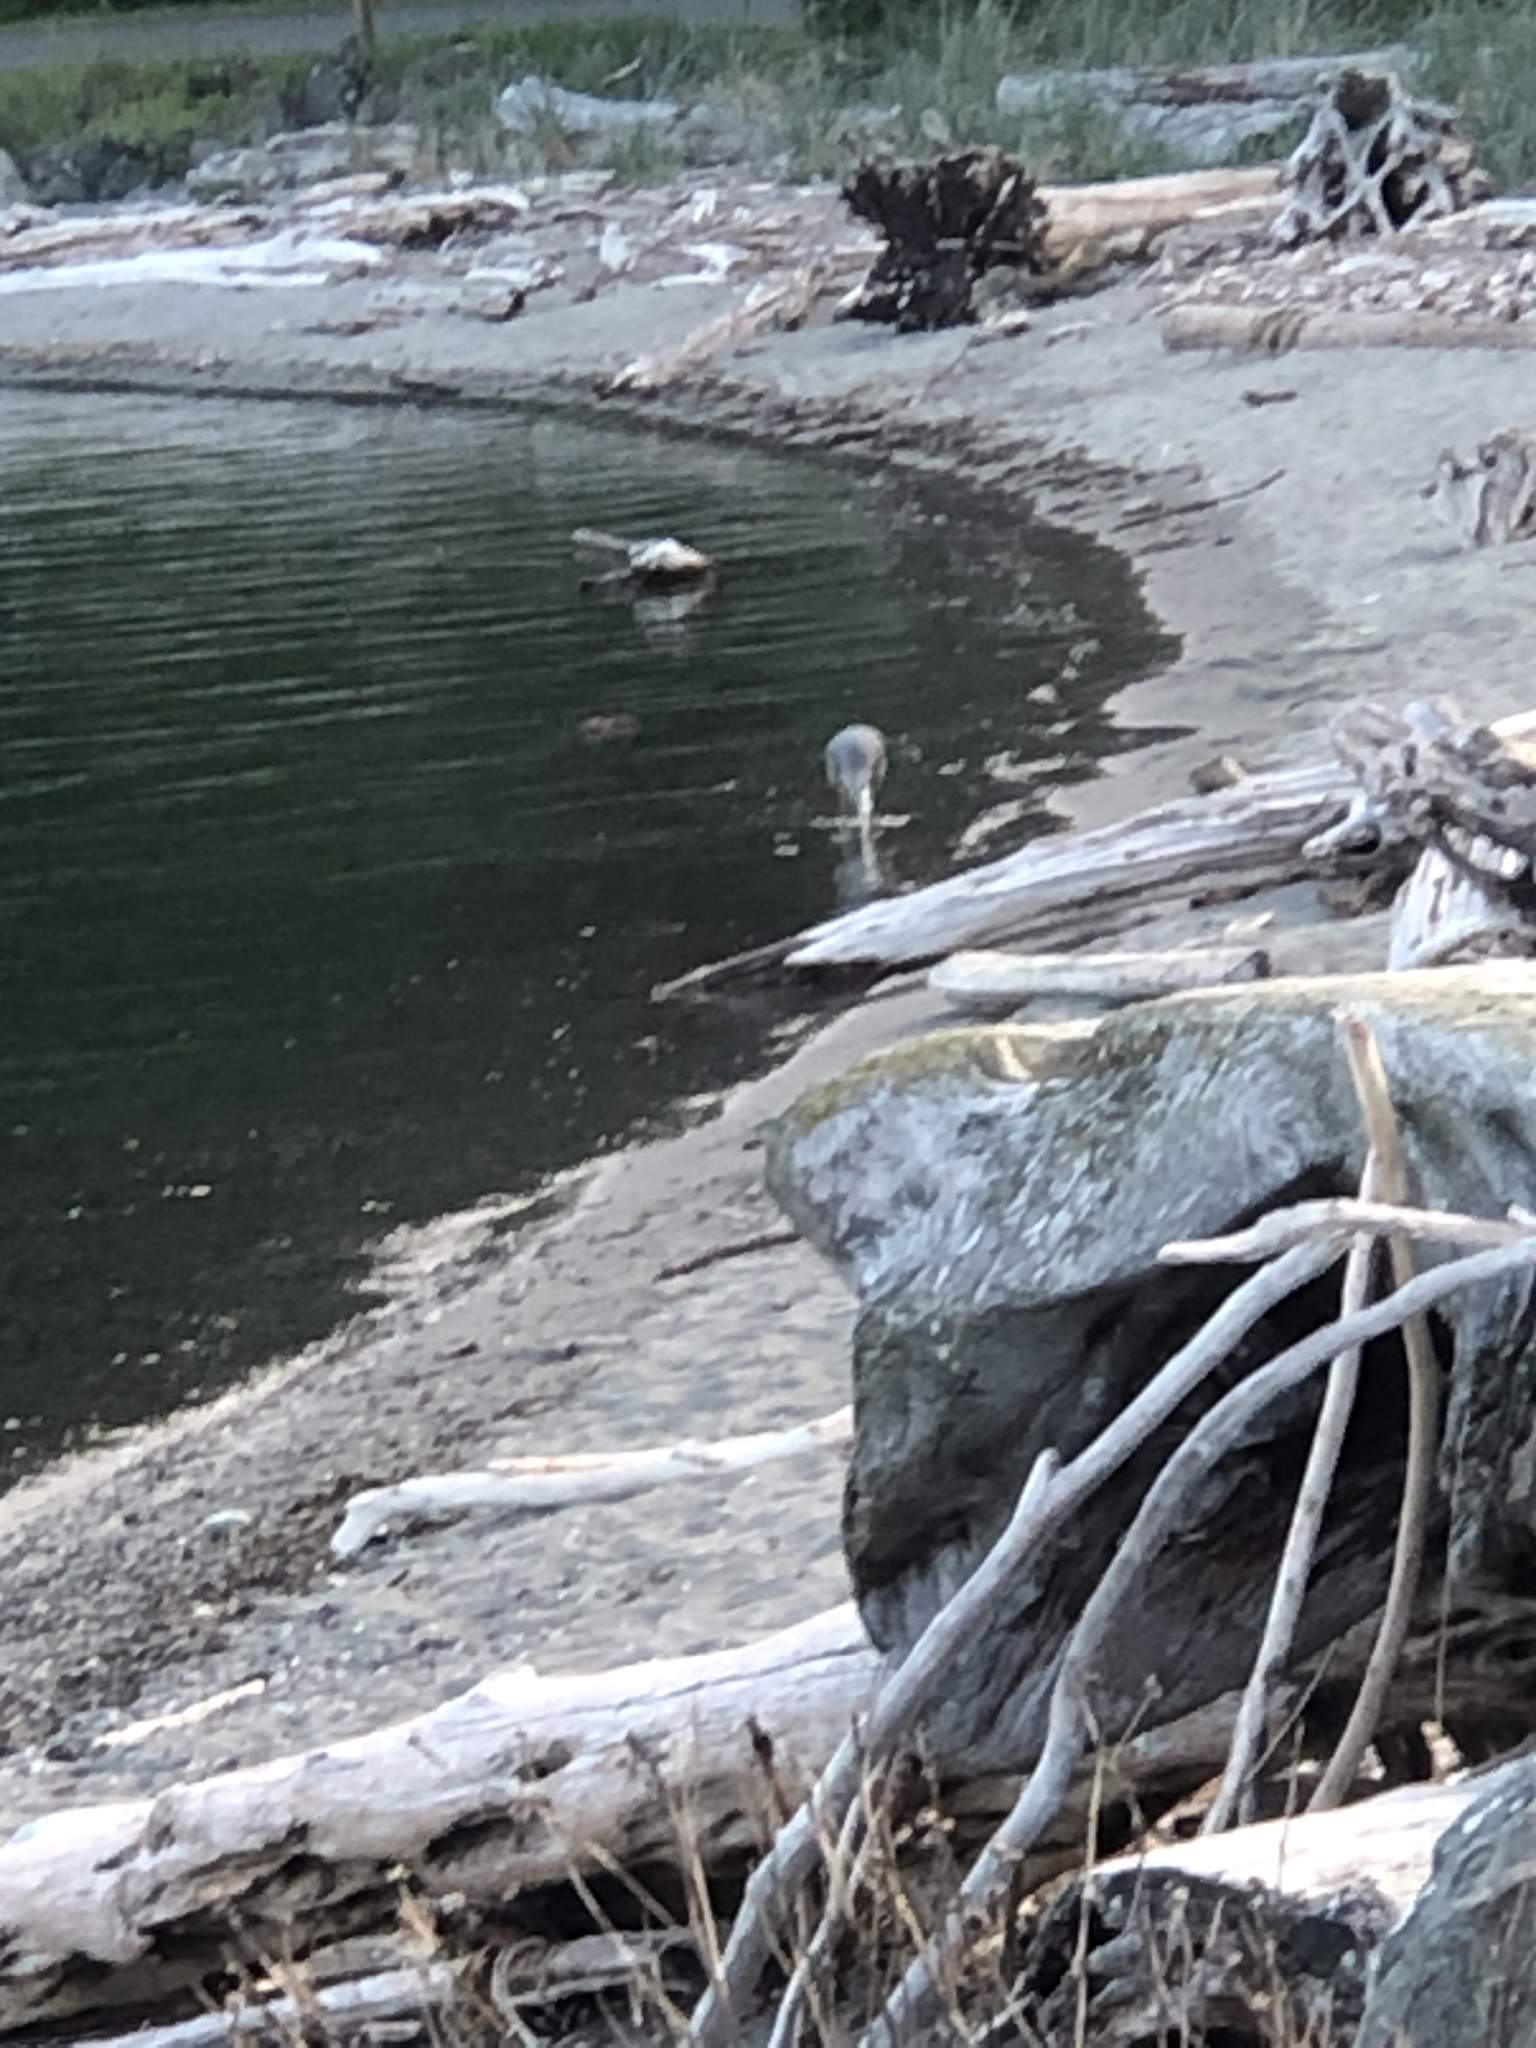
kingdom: Animalia
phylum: Chordata
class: Aves
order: Pelecaniformes
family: Ardeidae
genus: Ardea
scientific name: Ardea herodias
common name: Great blue heron
